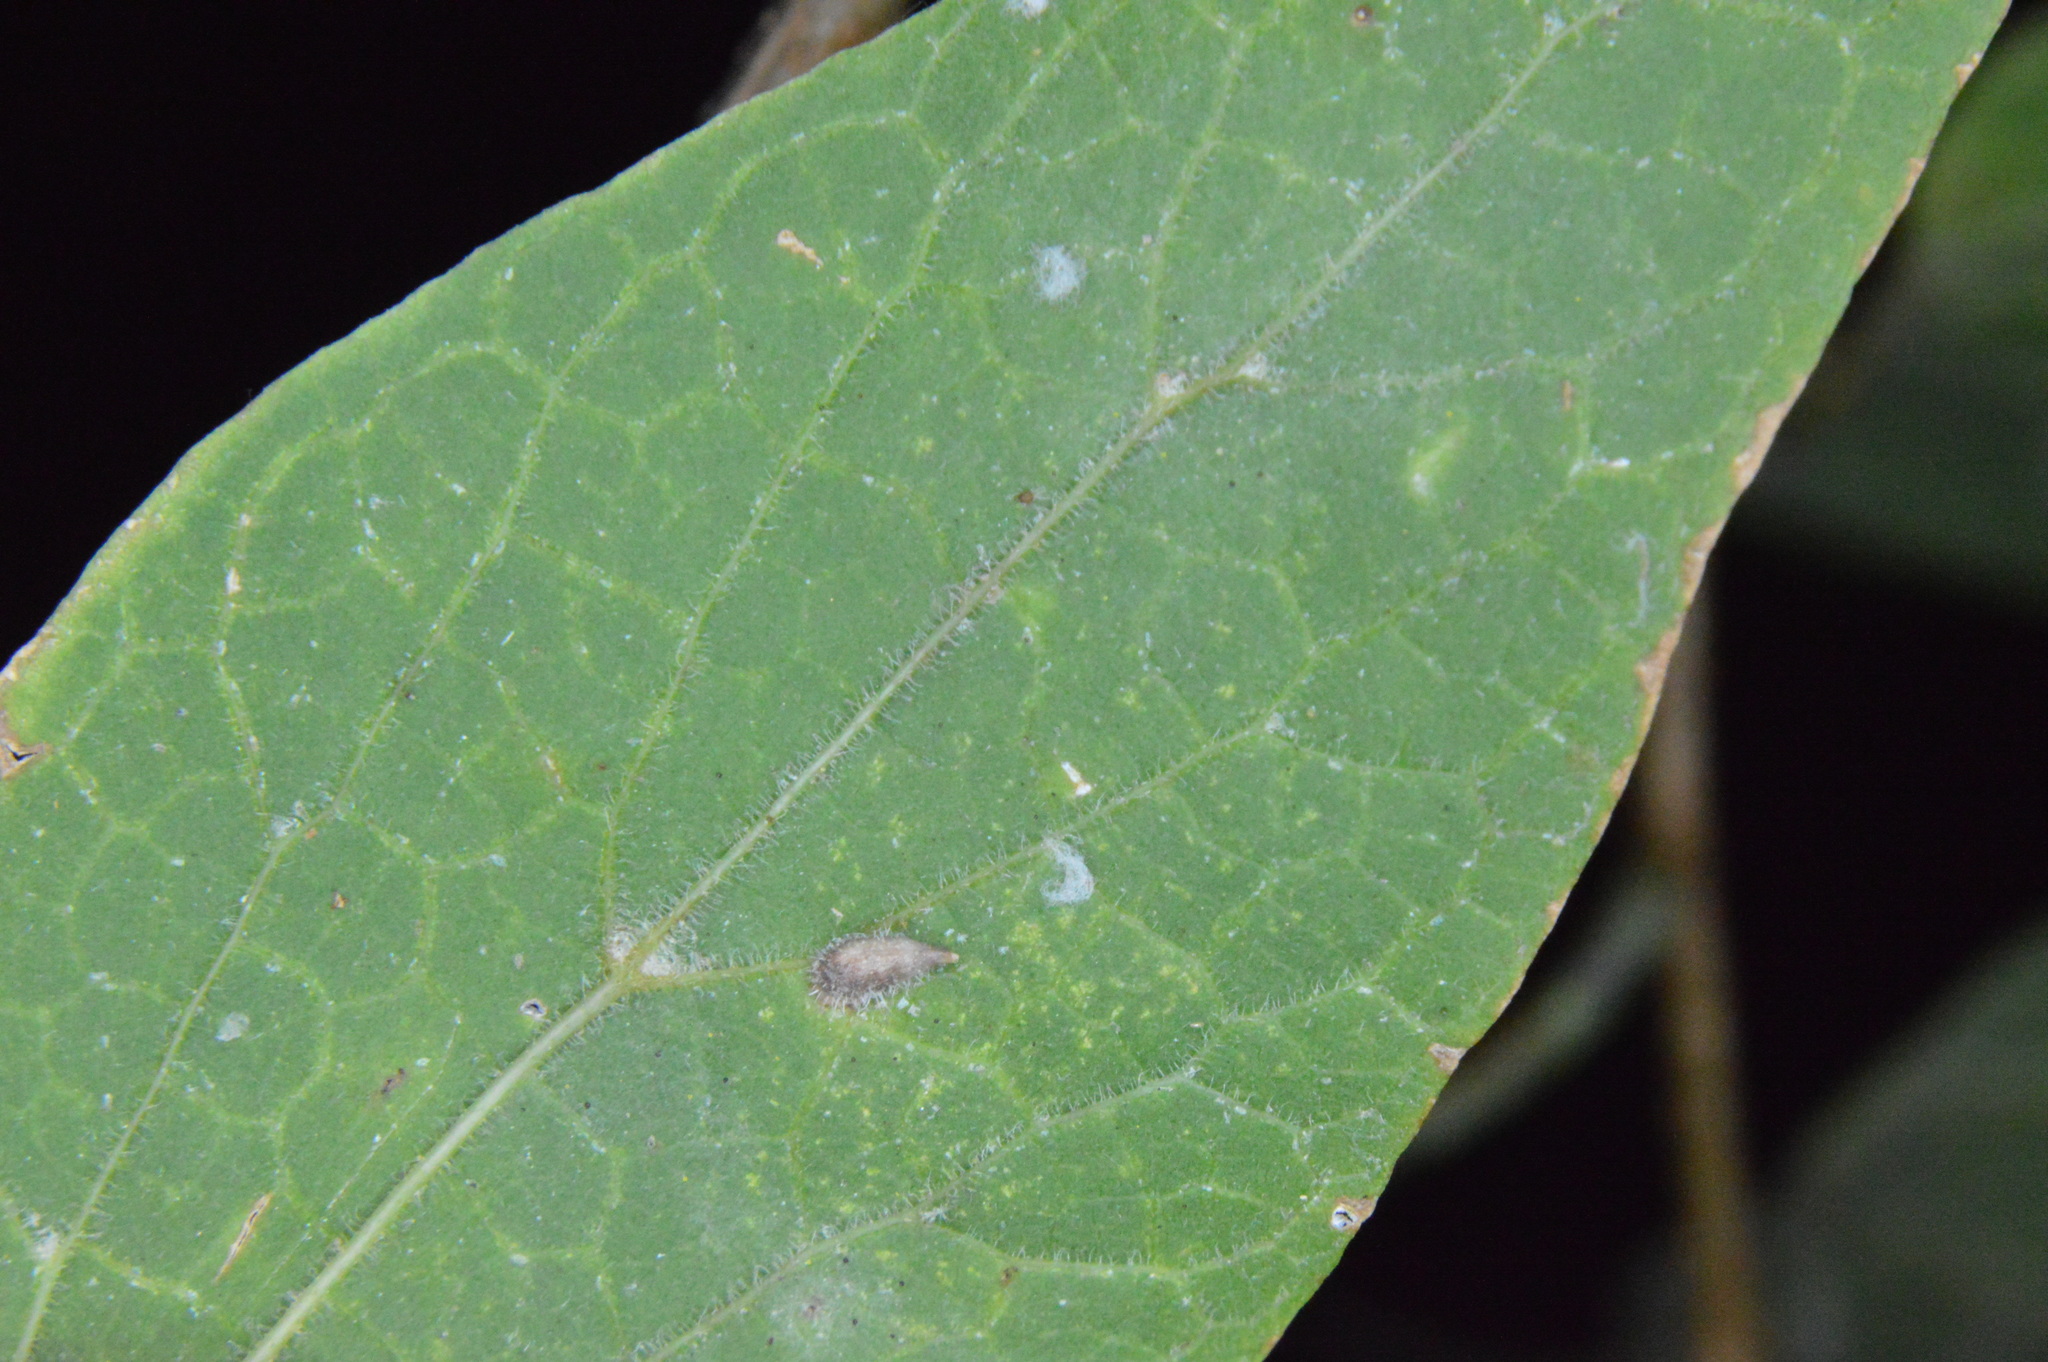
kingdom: Animalia
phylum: Arthropoda
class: Insecta
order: Diptera
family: Cecidomyiidae
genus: Celticecis
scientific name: Celticecis supina
